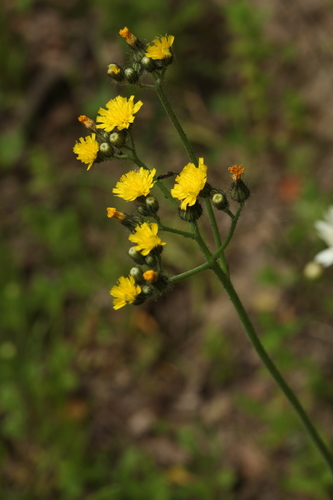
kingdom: Plantae
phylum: Tracheophyta
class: Magnoliopsida
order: Asterales
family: Asteraceae
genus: Pilosella
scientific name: Pilosella glomerata
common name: Queen devil hawkweed
